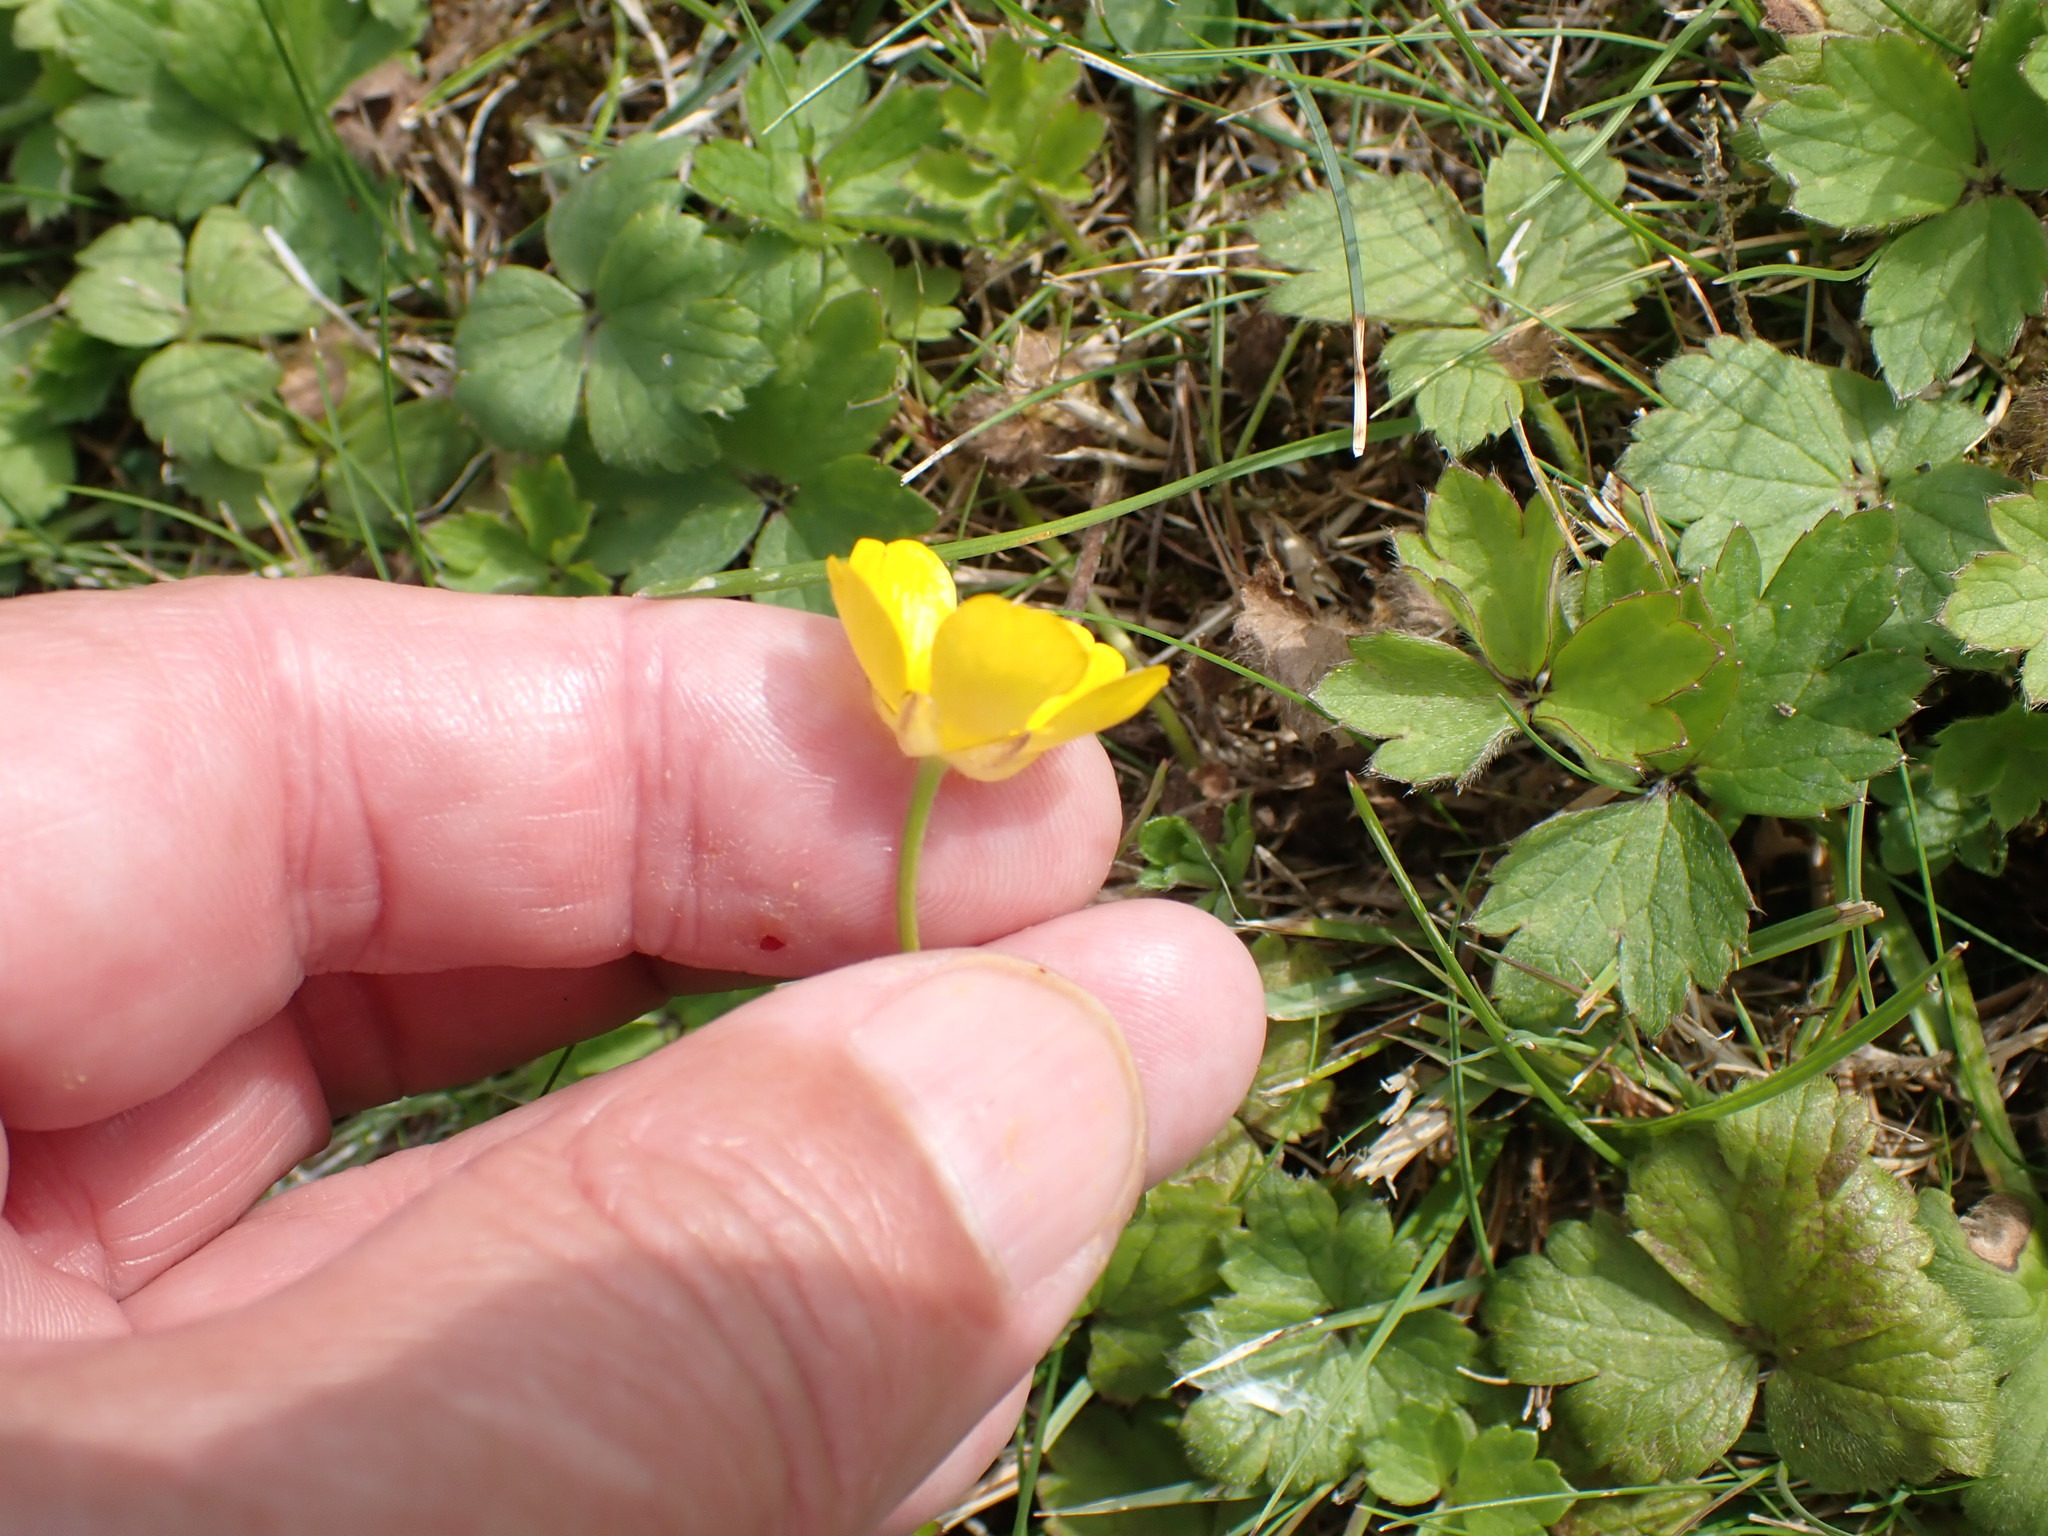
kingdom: Plantae
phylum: Tracheophyta
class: Magnoliopsida
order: Ranunculales
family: Ranunculaceae
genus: Ranunculus
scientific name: Ranunculus repens
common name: Creeping buttercup
